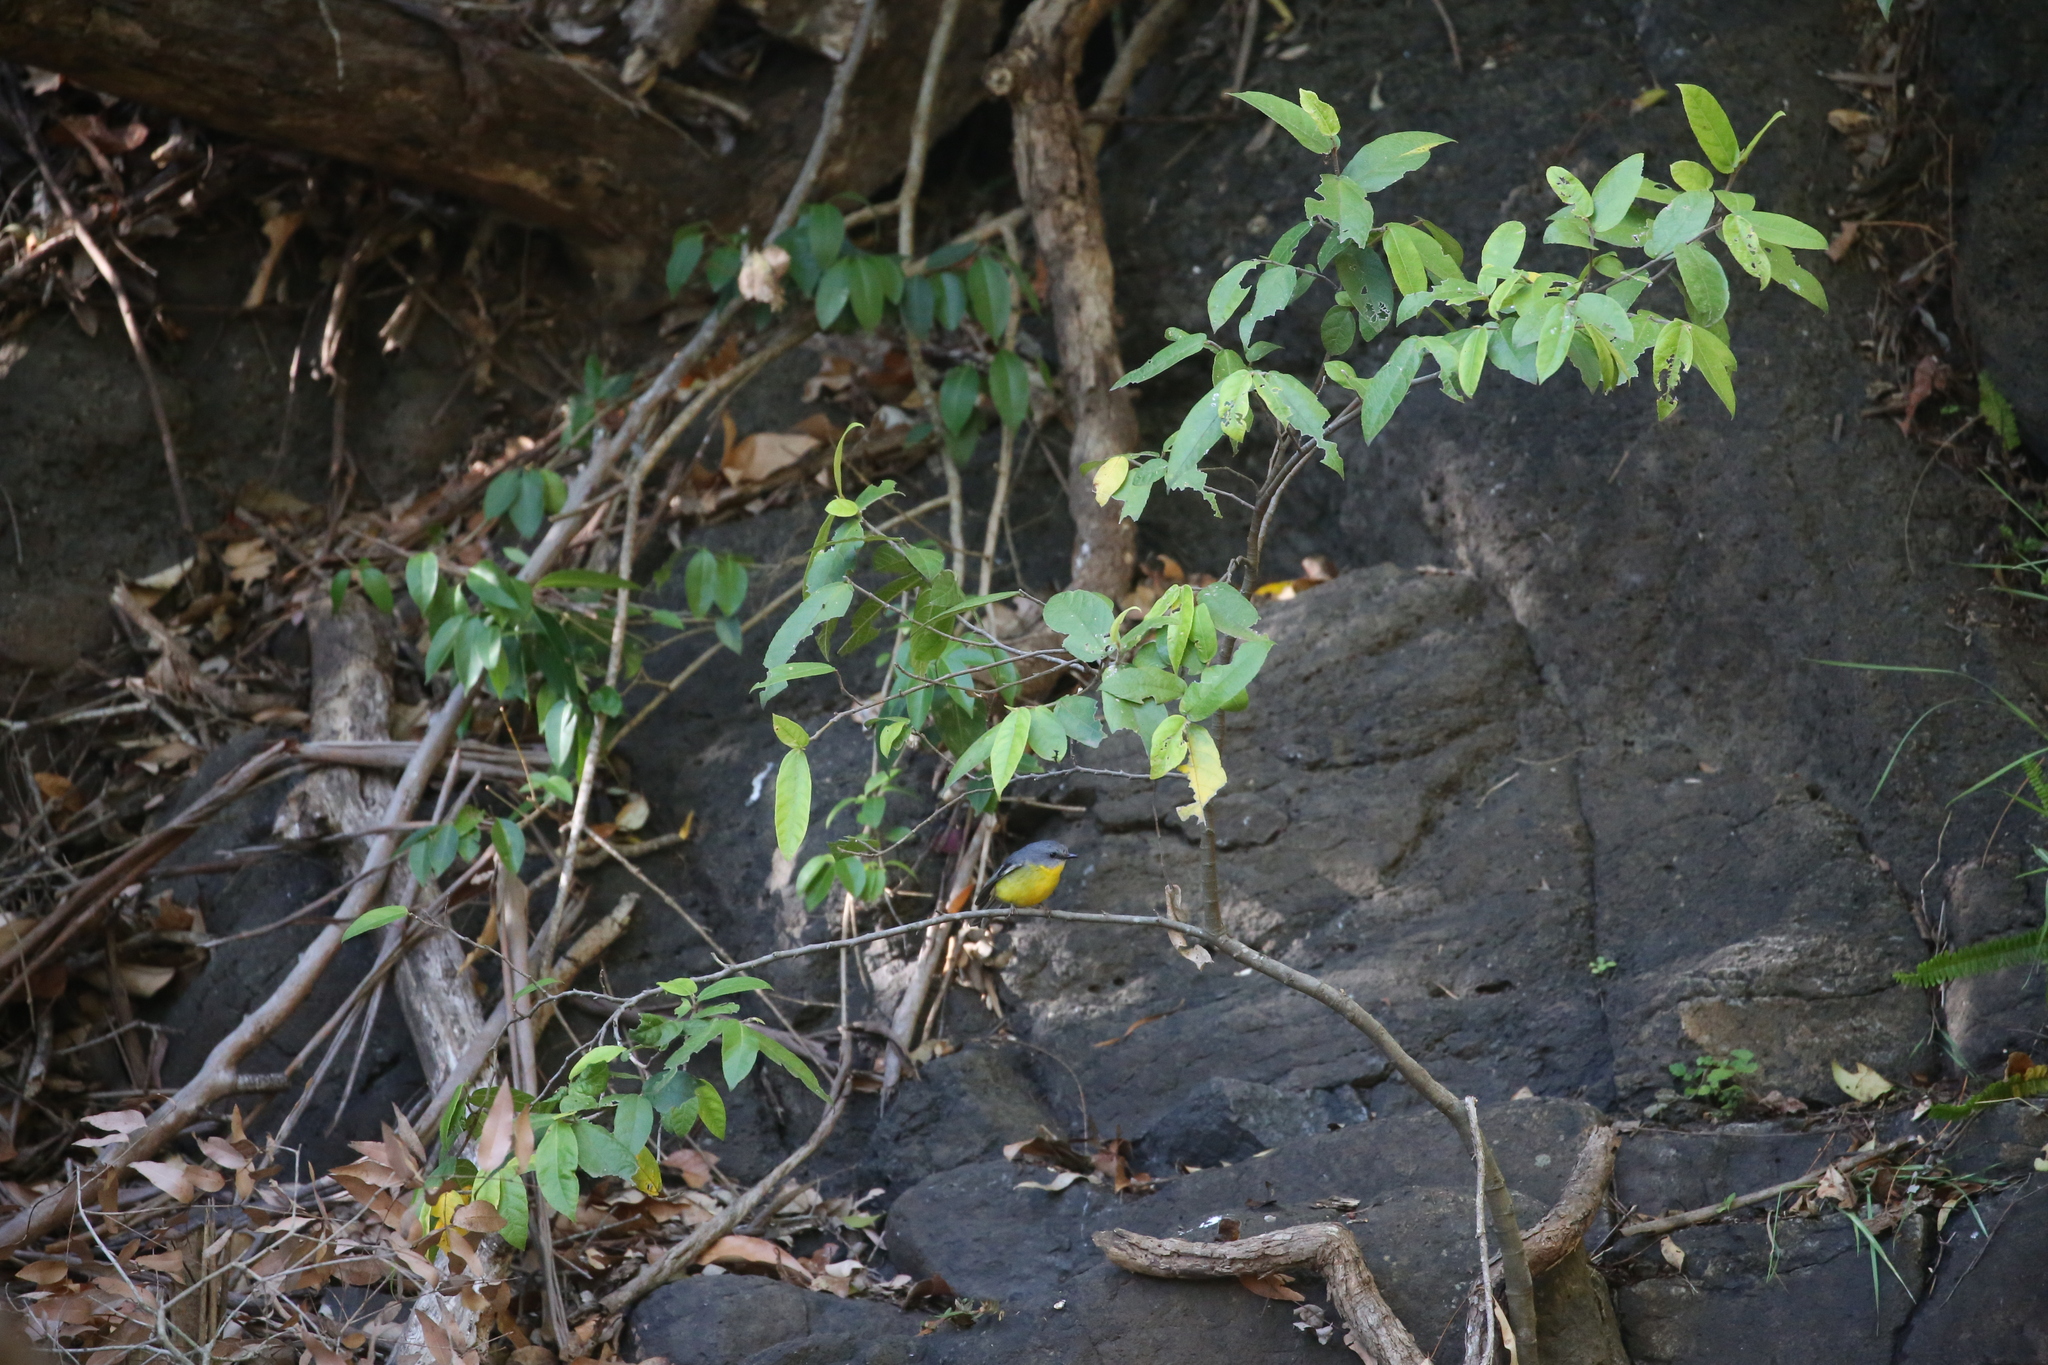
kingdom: Animalia
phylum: Chordata
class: Aves
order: Passeriformes
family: Petroicidae
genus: Eopsaltria
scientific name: Eopsaltria australis
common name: Eastern yellow robin
